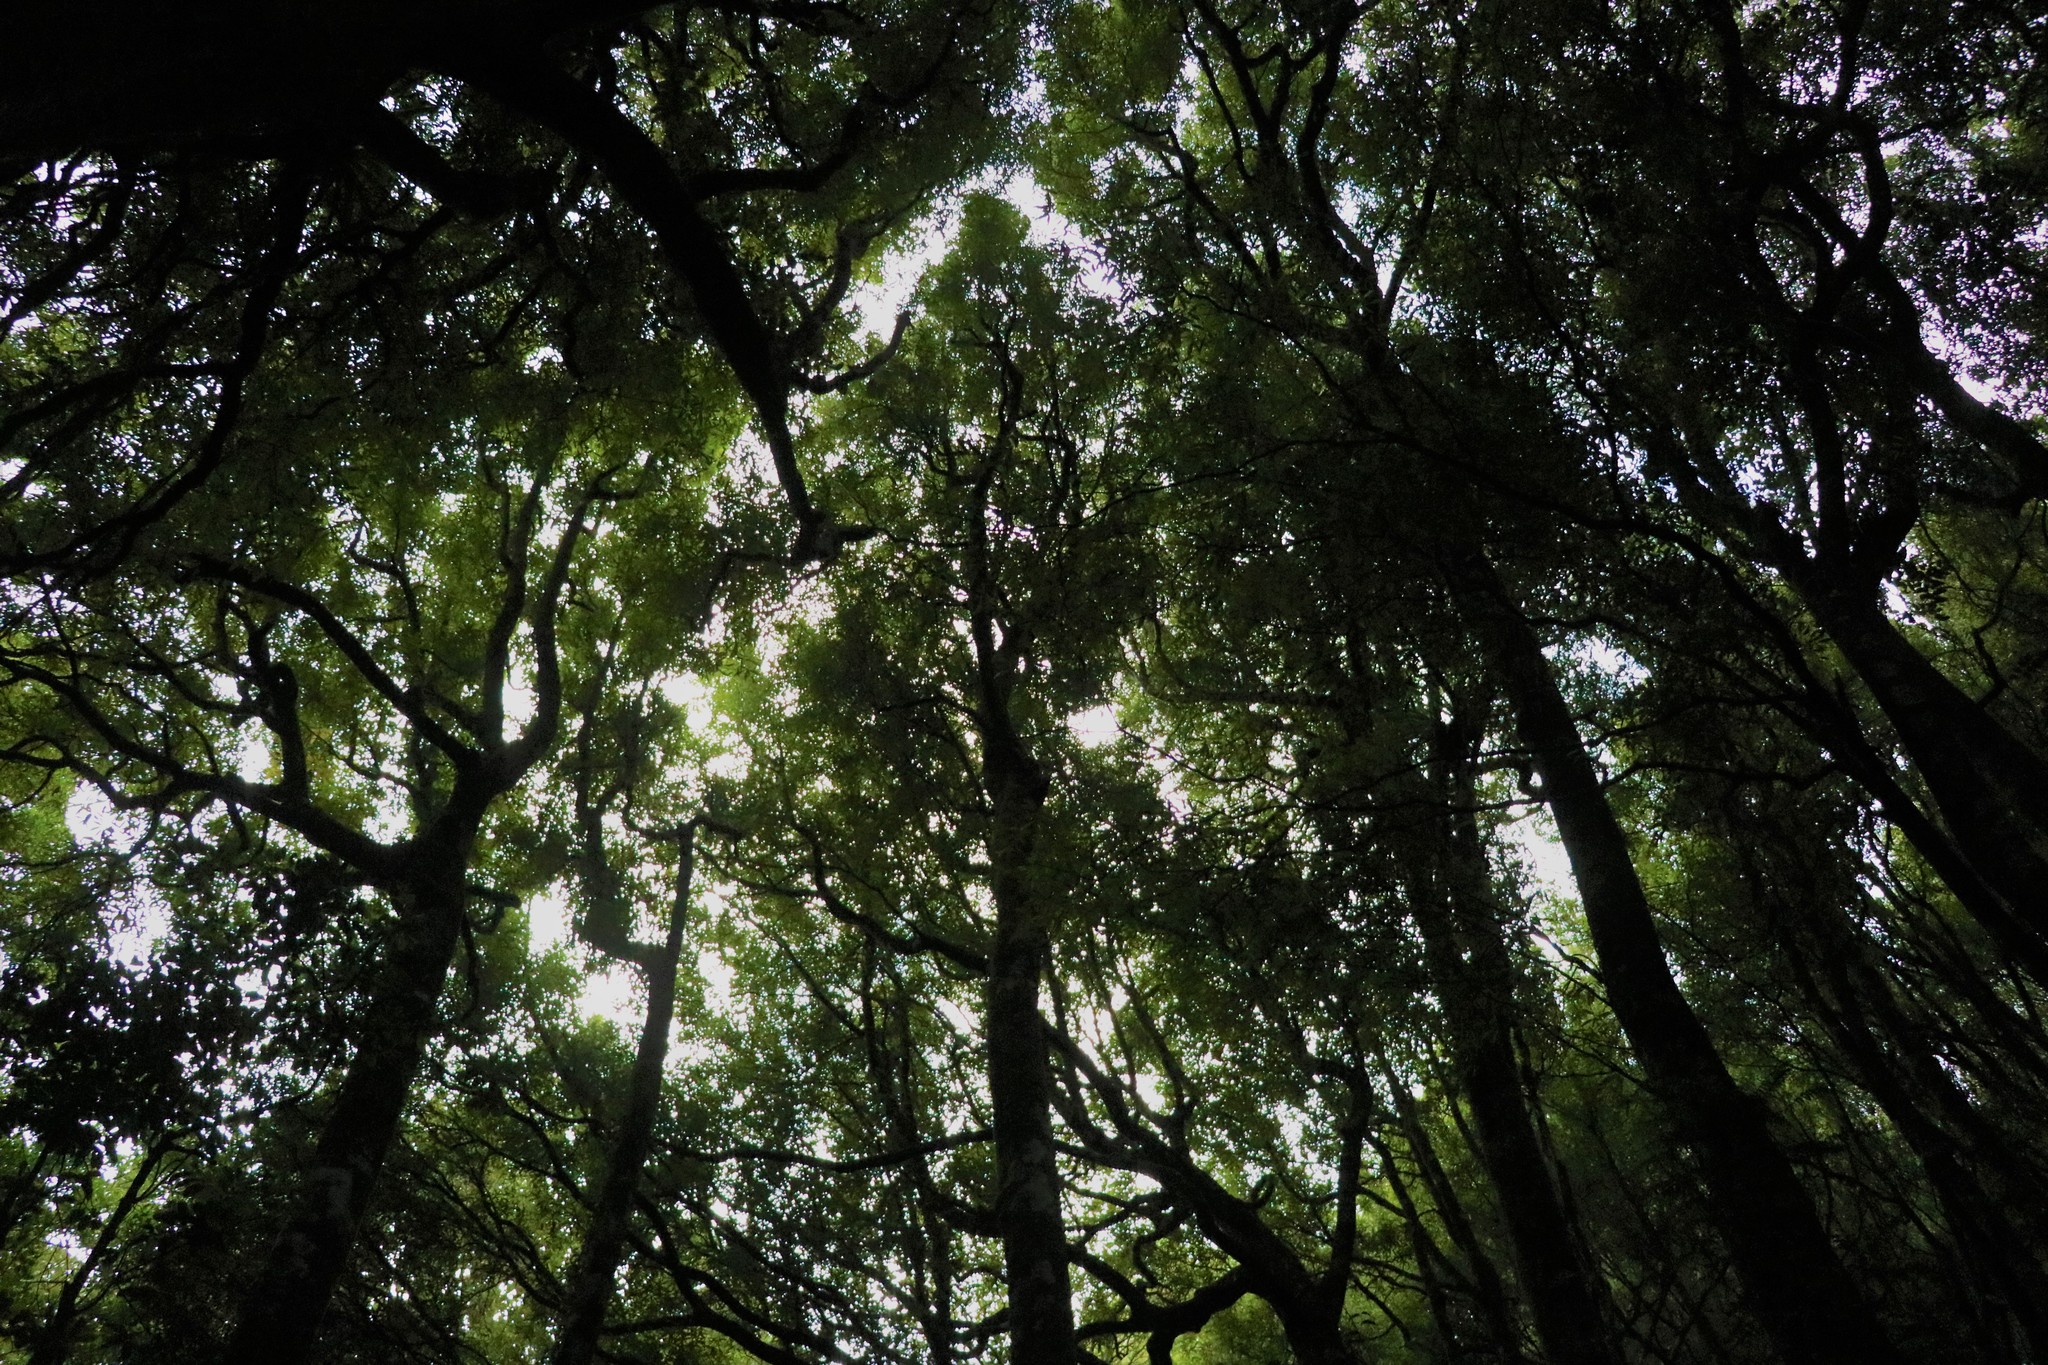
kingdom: Plantae
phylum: Tracheophyta
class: Magnoliopsida
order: Laurales
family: Lauraceae
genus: Beilschmiedia
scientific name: Beilschmiedia tawa
